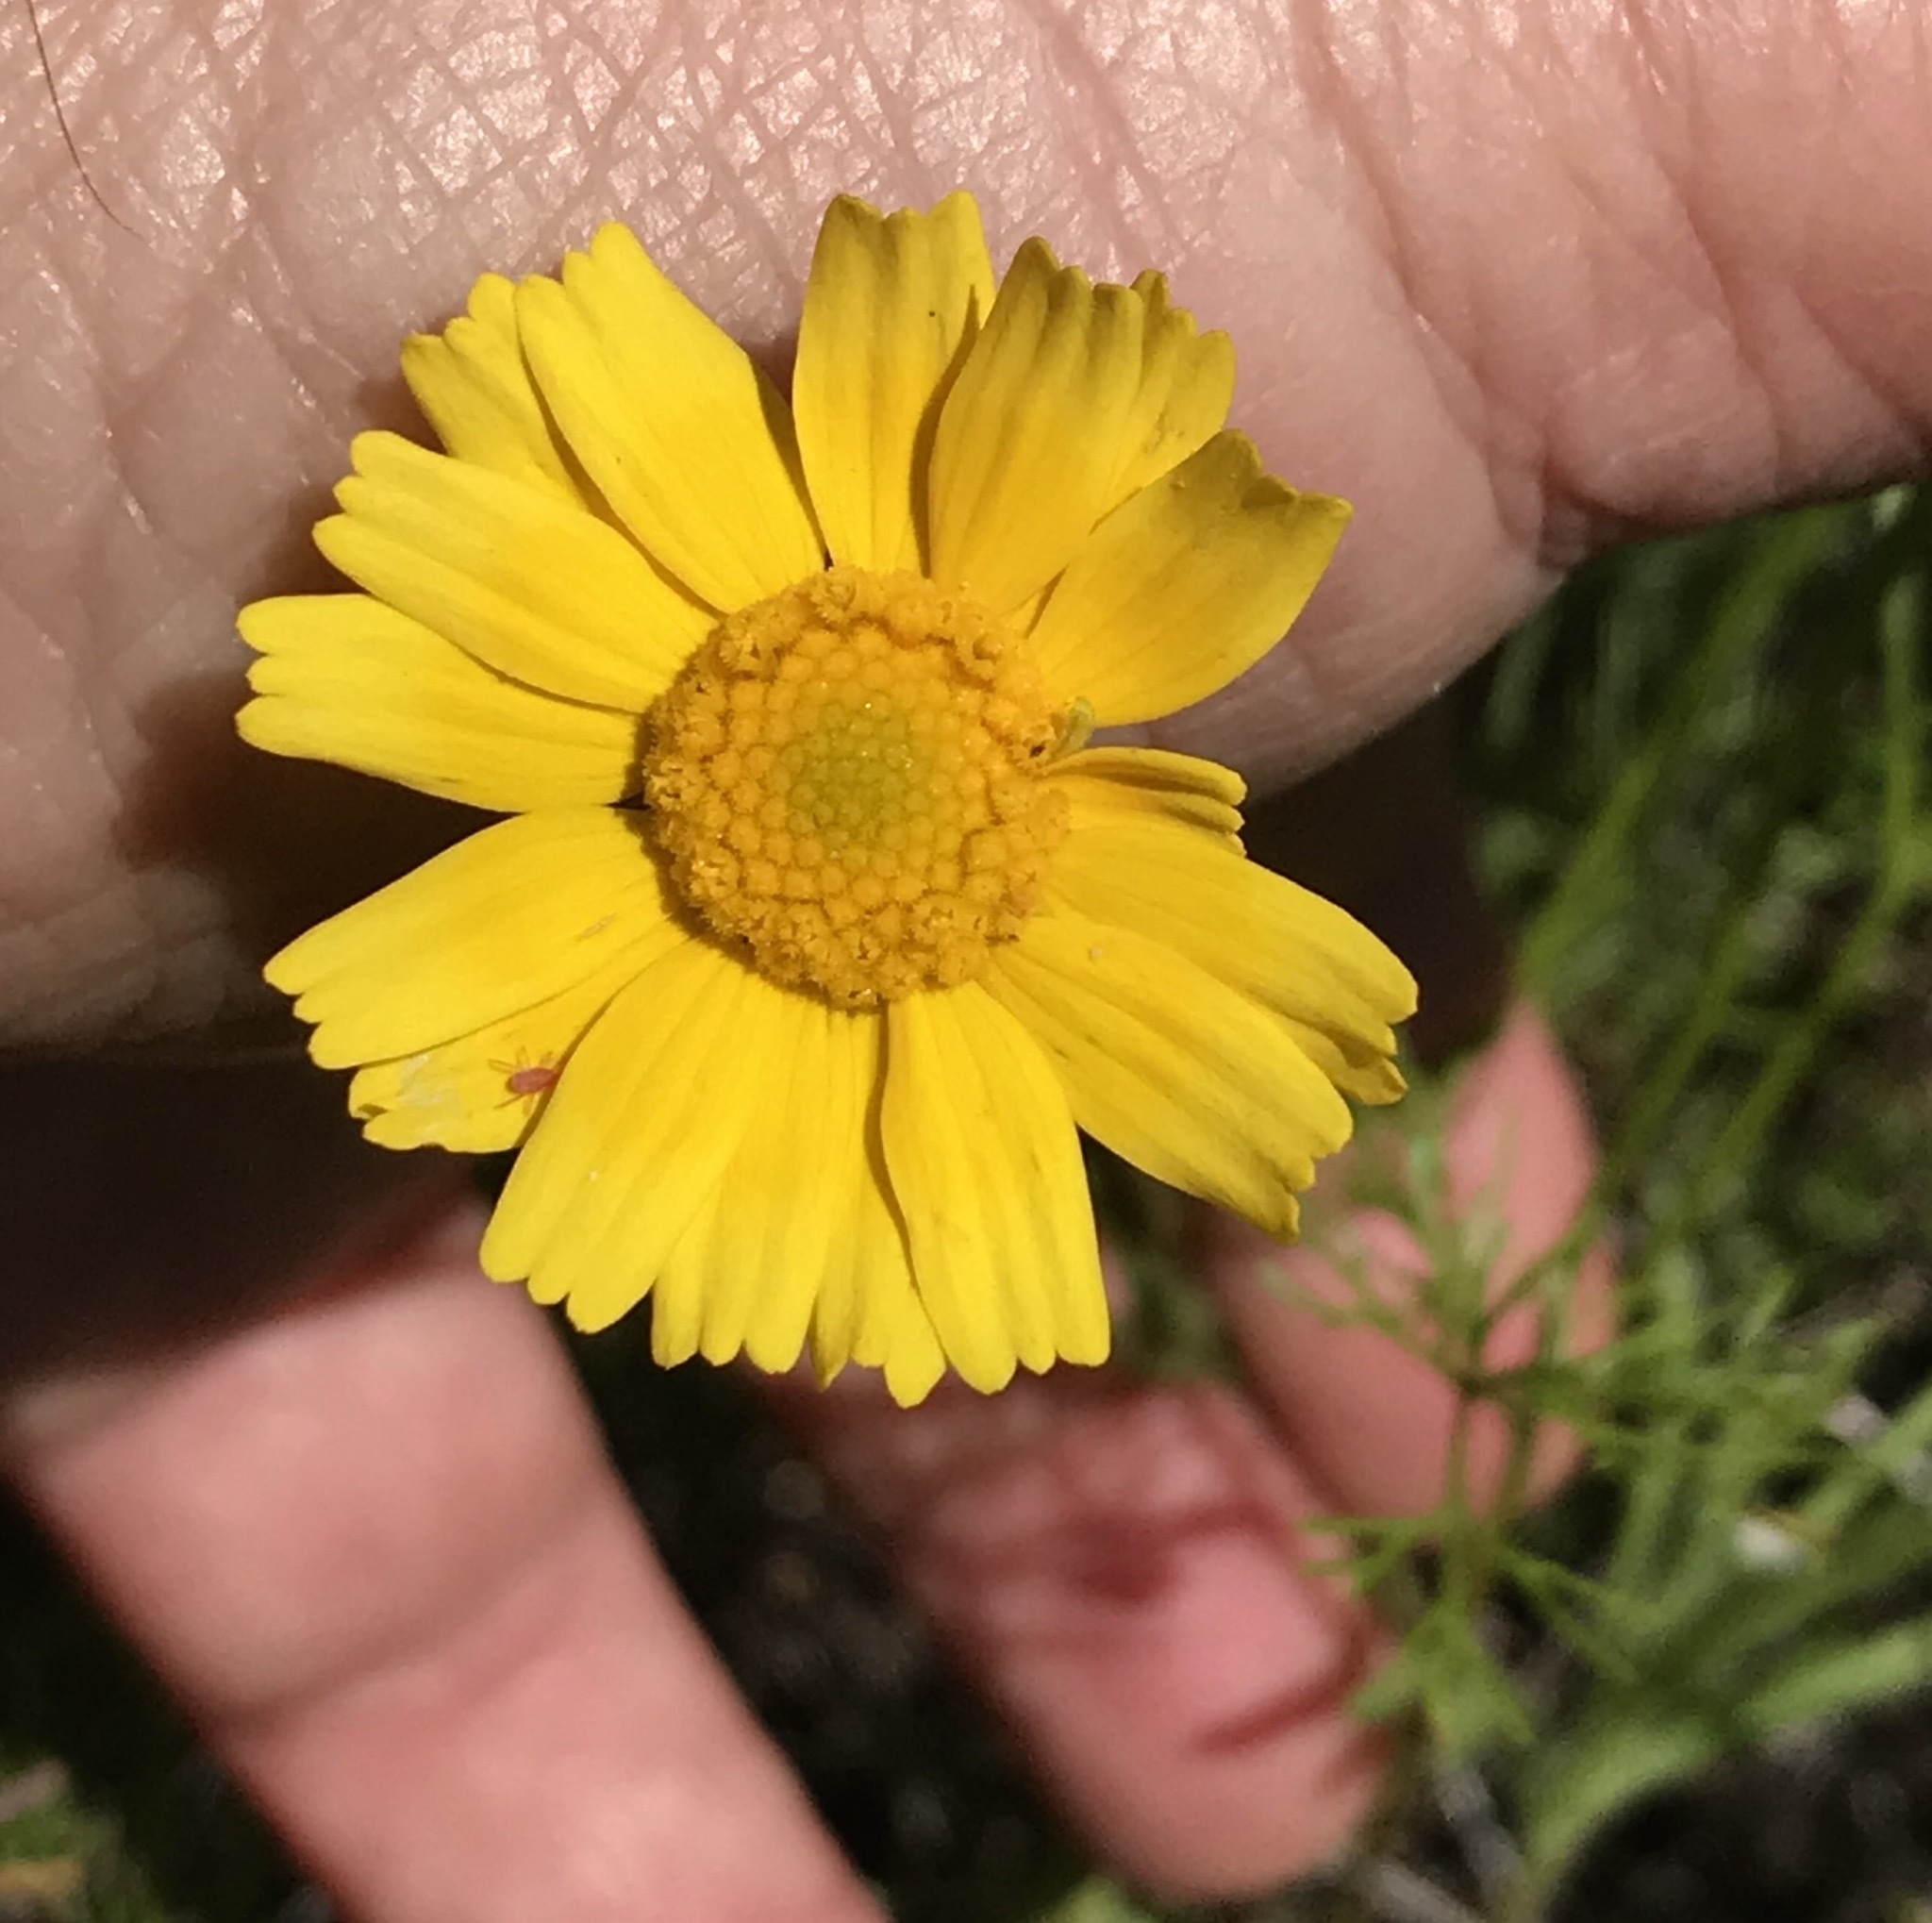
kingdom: Plantae
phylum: Tracheophyta
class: Magnoliopsida
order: Asterales
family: Asteraceae
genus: Tetraneuris
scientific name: Tetraneuris linearifolia
